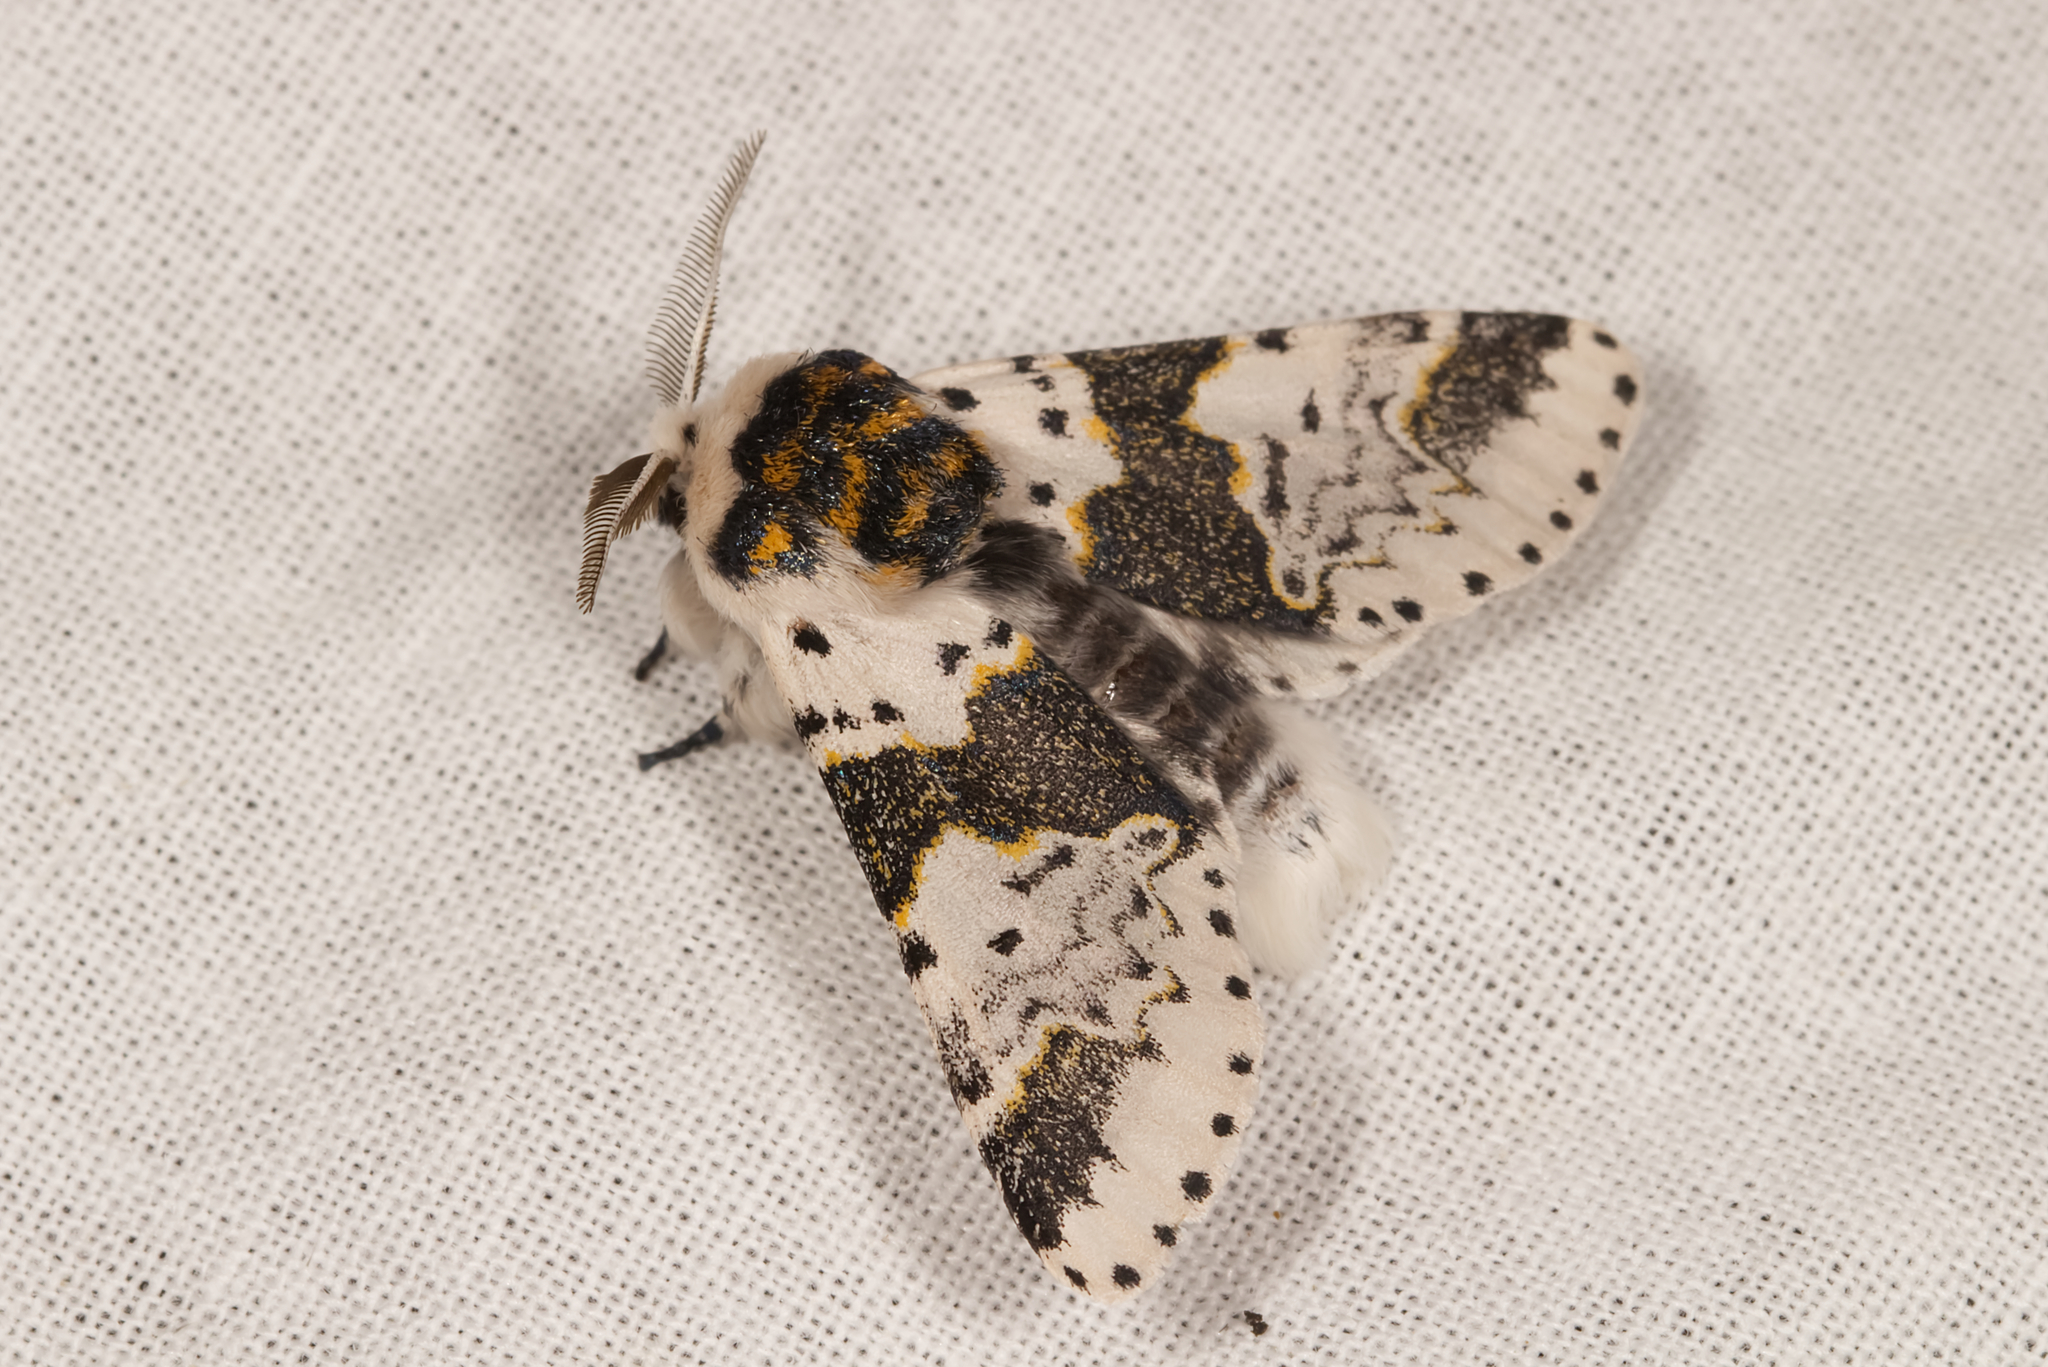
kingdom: Animalia
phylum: Arthropoda
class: Insecta
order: Lepidoptera
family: Notodontidae
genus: Furcula
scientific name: Furcula bicuspis
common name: Alder kitten
